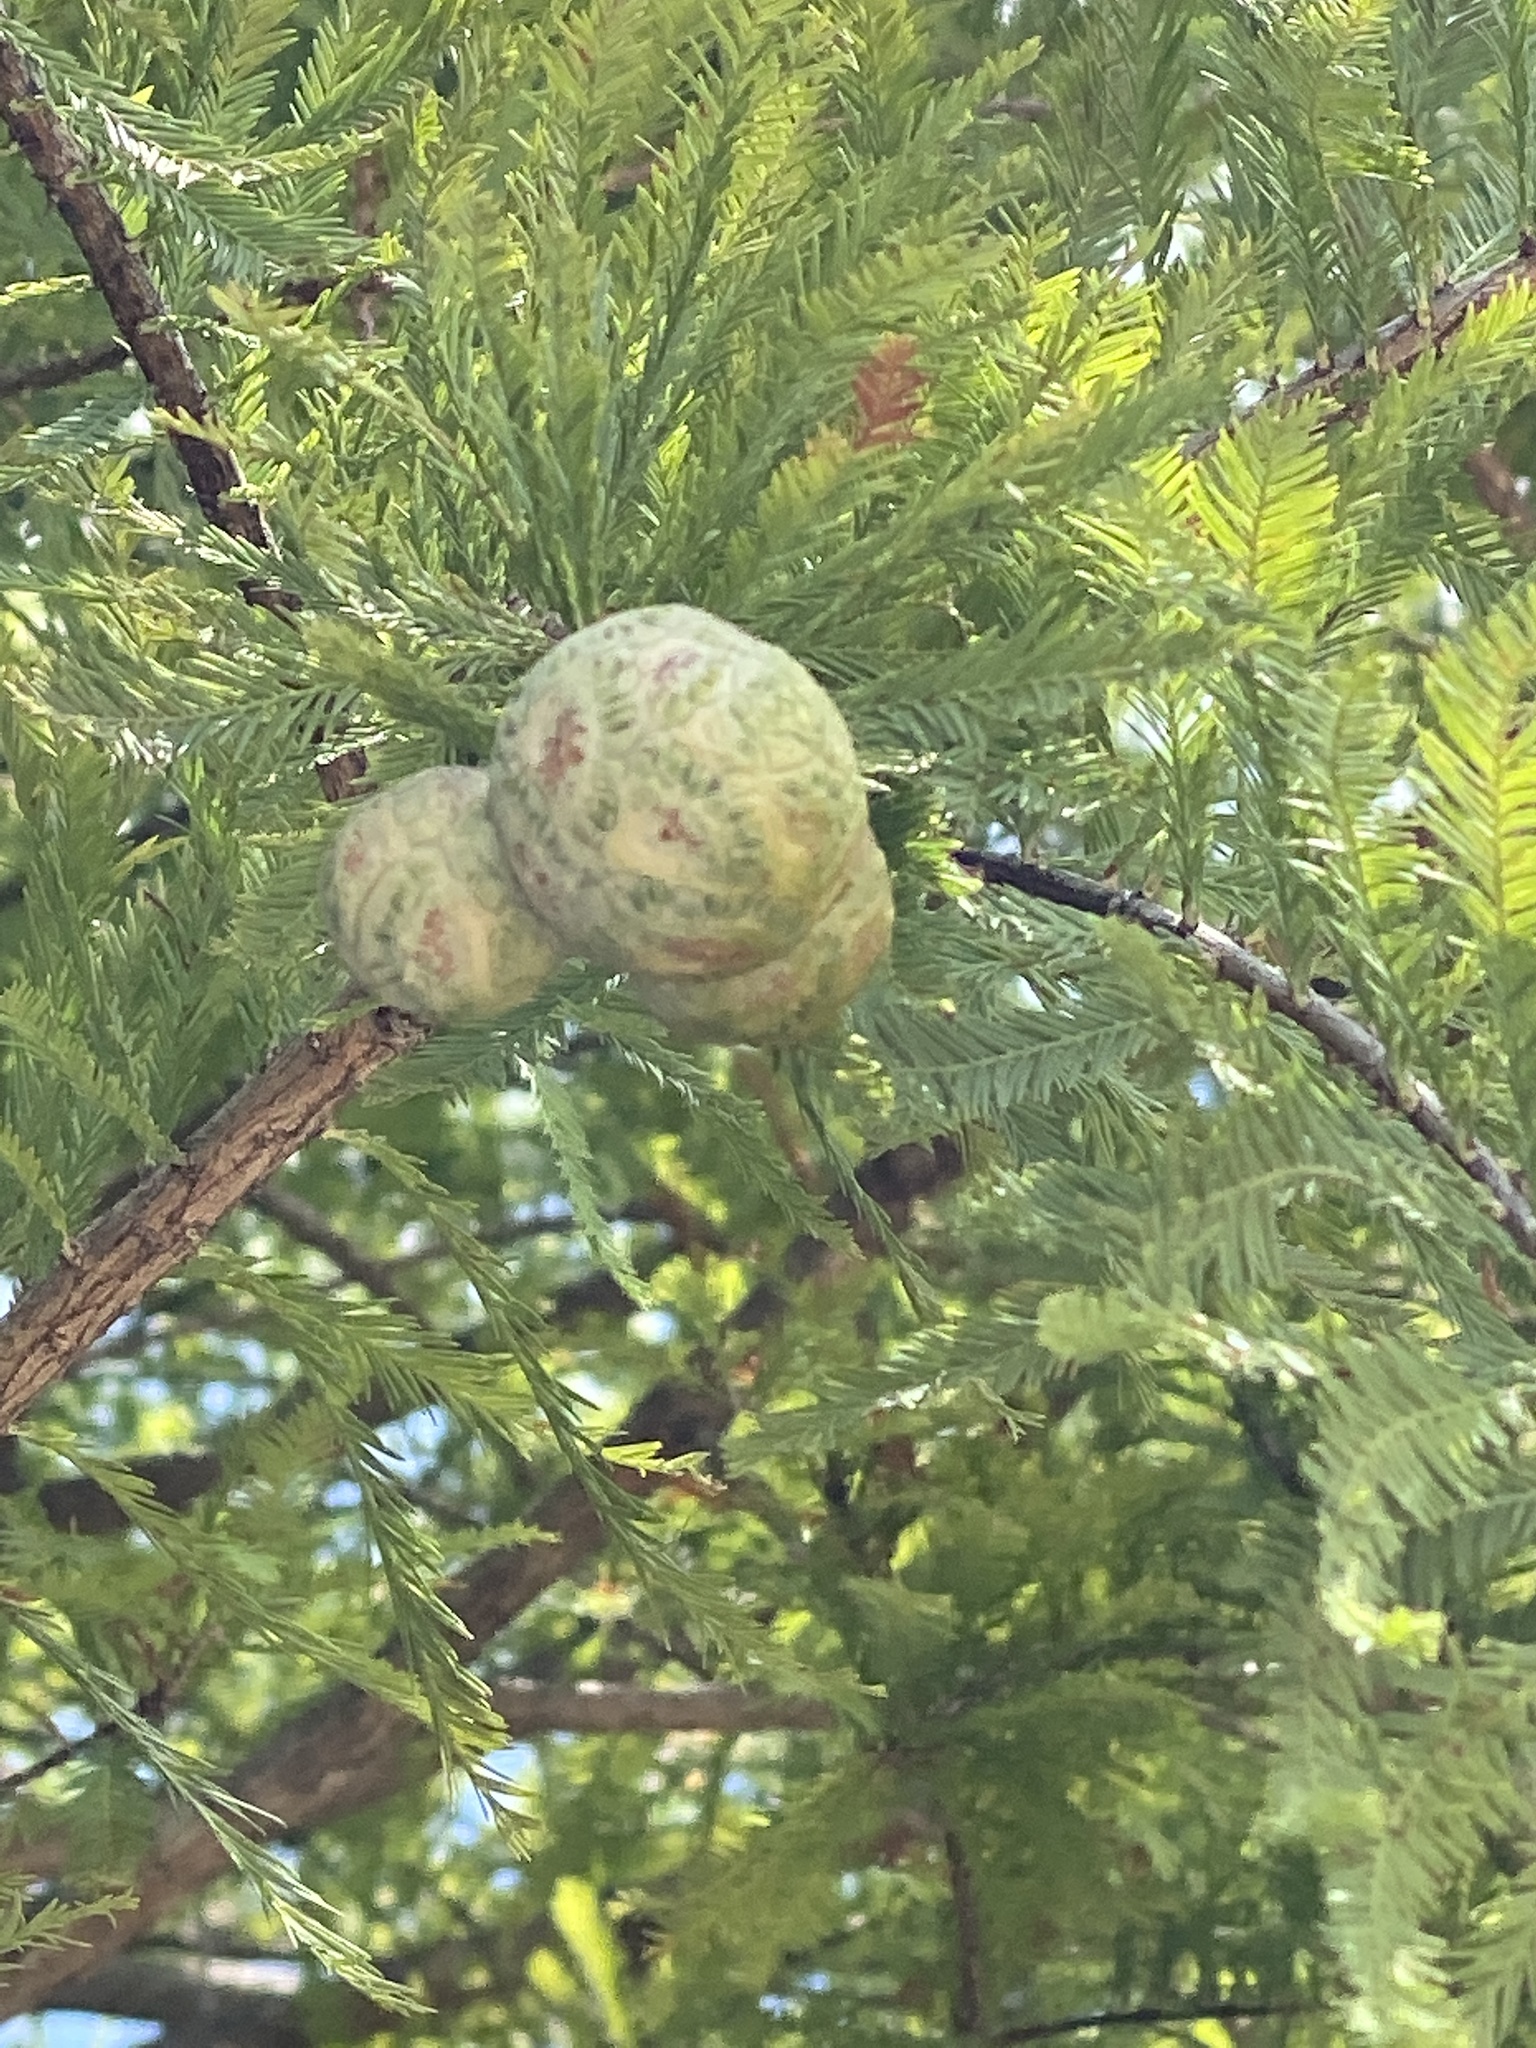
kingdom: Plantae
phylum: Tracheophyta
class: Pinopsida
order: Pinales
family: Cupressaceae
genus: Taxodium
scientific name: Taxodium distichum
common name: Bald cypress
